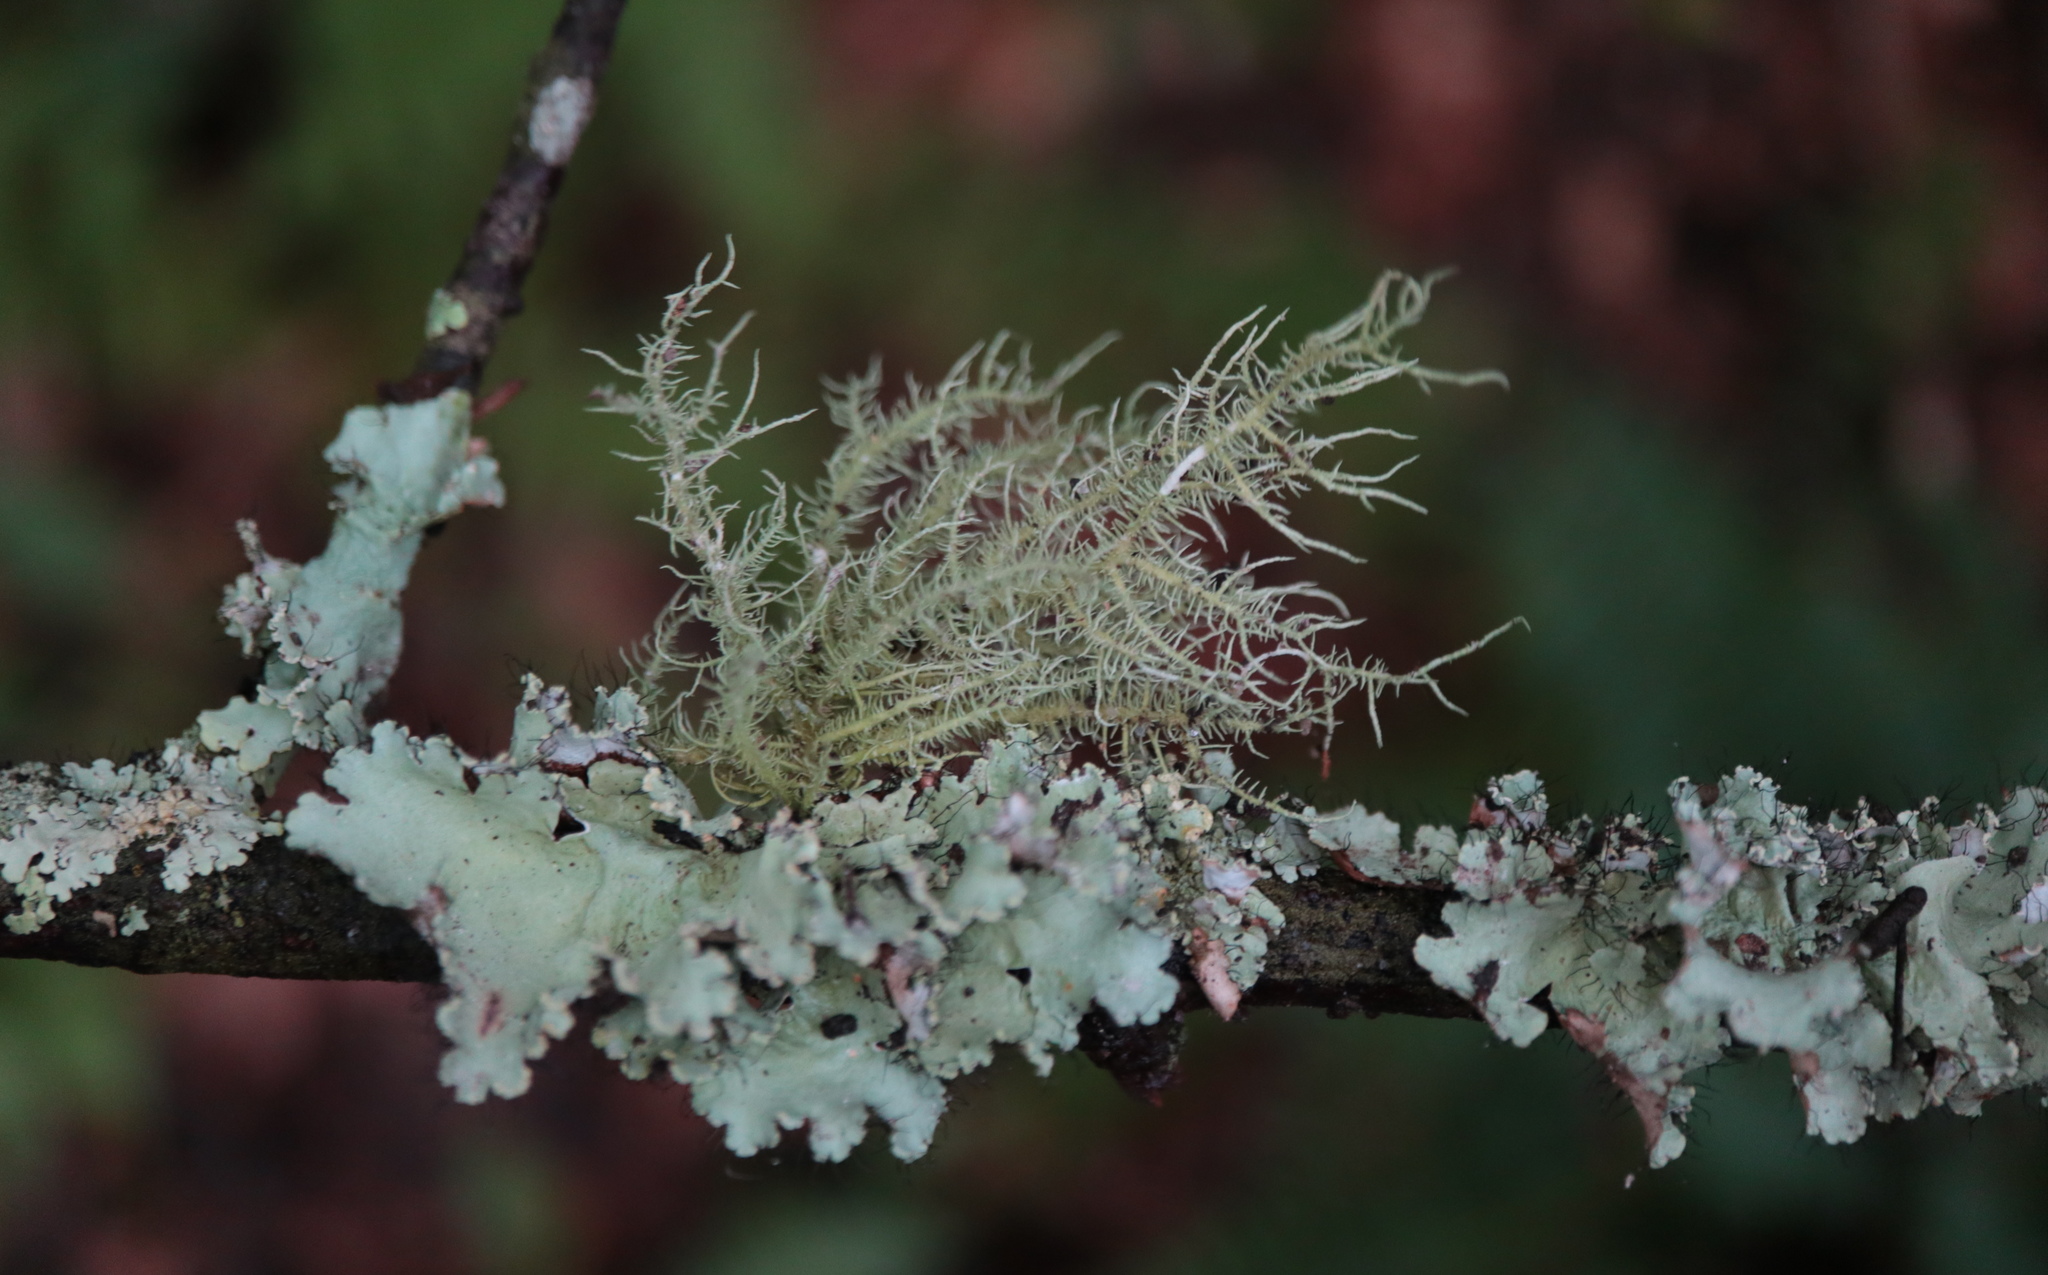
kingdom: Fungi
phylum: Ascomycota
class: Lecanoromycetes
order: Lecanorales
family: Parmeliaceae
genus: Usnea
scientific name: Usnea strigosa
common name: Bushy beard lichen
